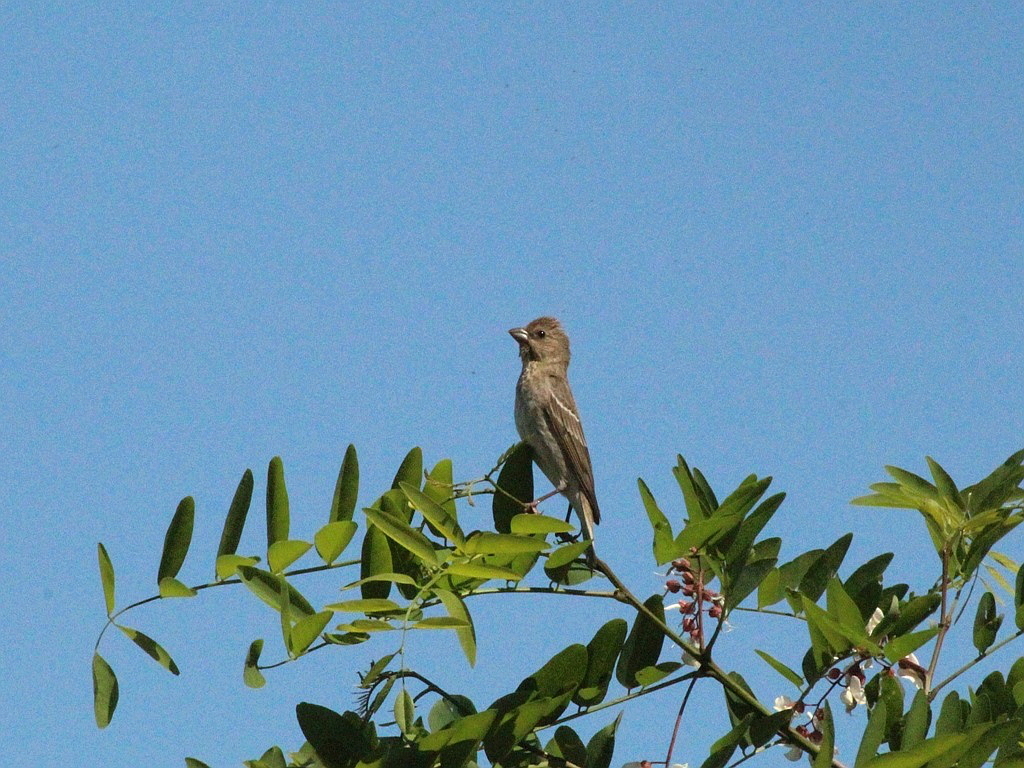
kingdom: Animalia
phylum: Chordata
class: Aves
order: Passeriformes
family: Fringillidae
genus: Carpodacus
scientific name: Carpodacus erythrinus
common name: Common rosefinch
